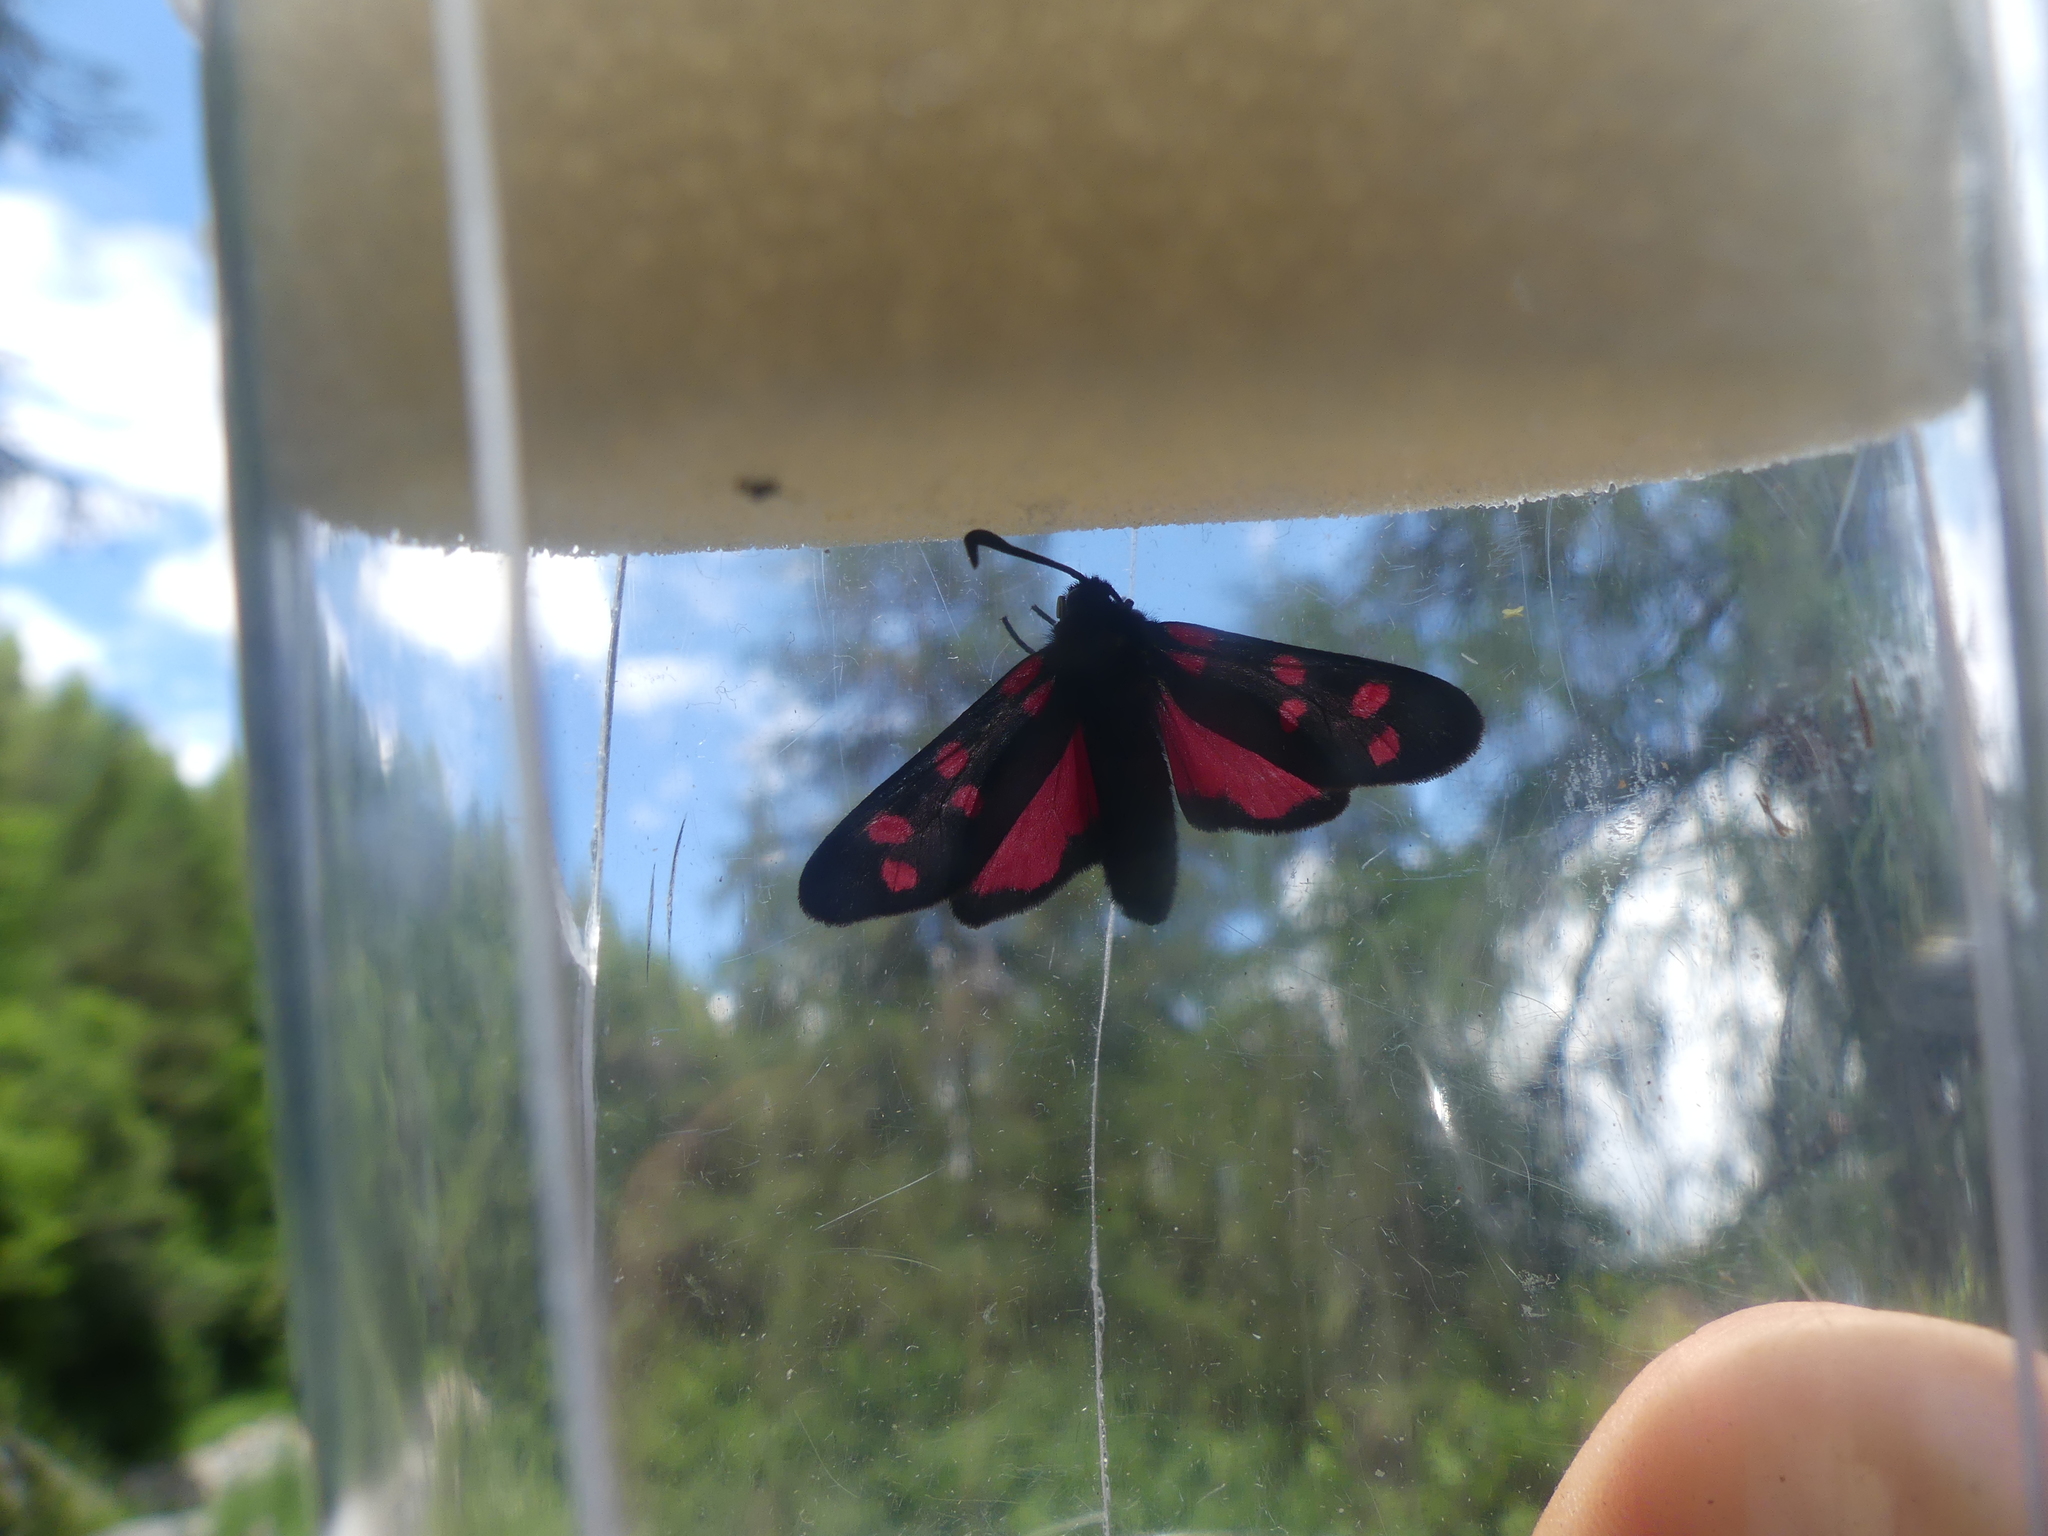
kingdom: Animalia
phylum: Arthropoda
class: Insecta
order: Lepidoptera
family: Zygaenidae
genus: Zygaena
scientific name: Zygaena transalpina
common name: Southern six spot burnet
